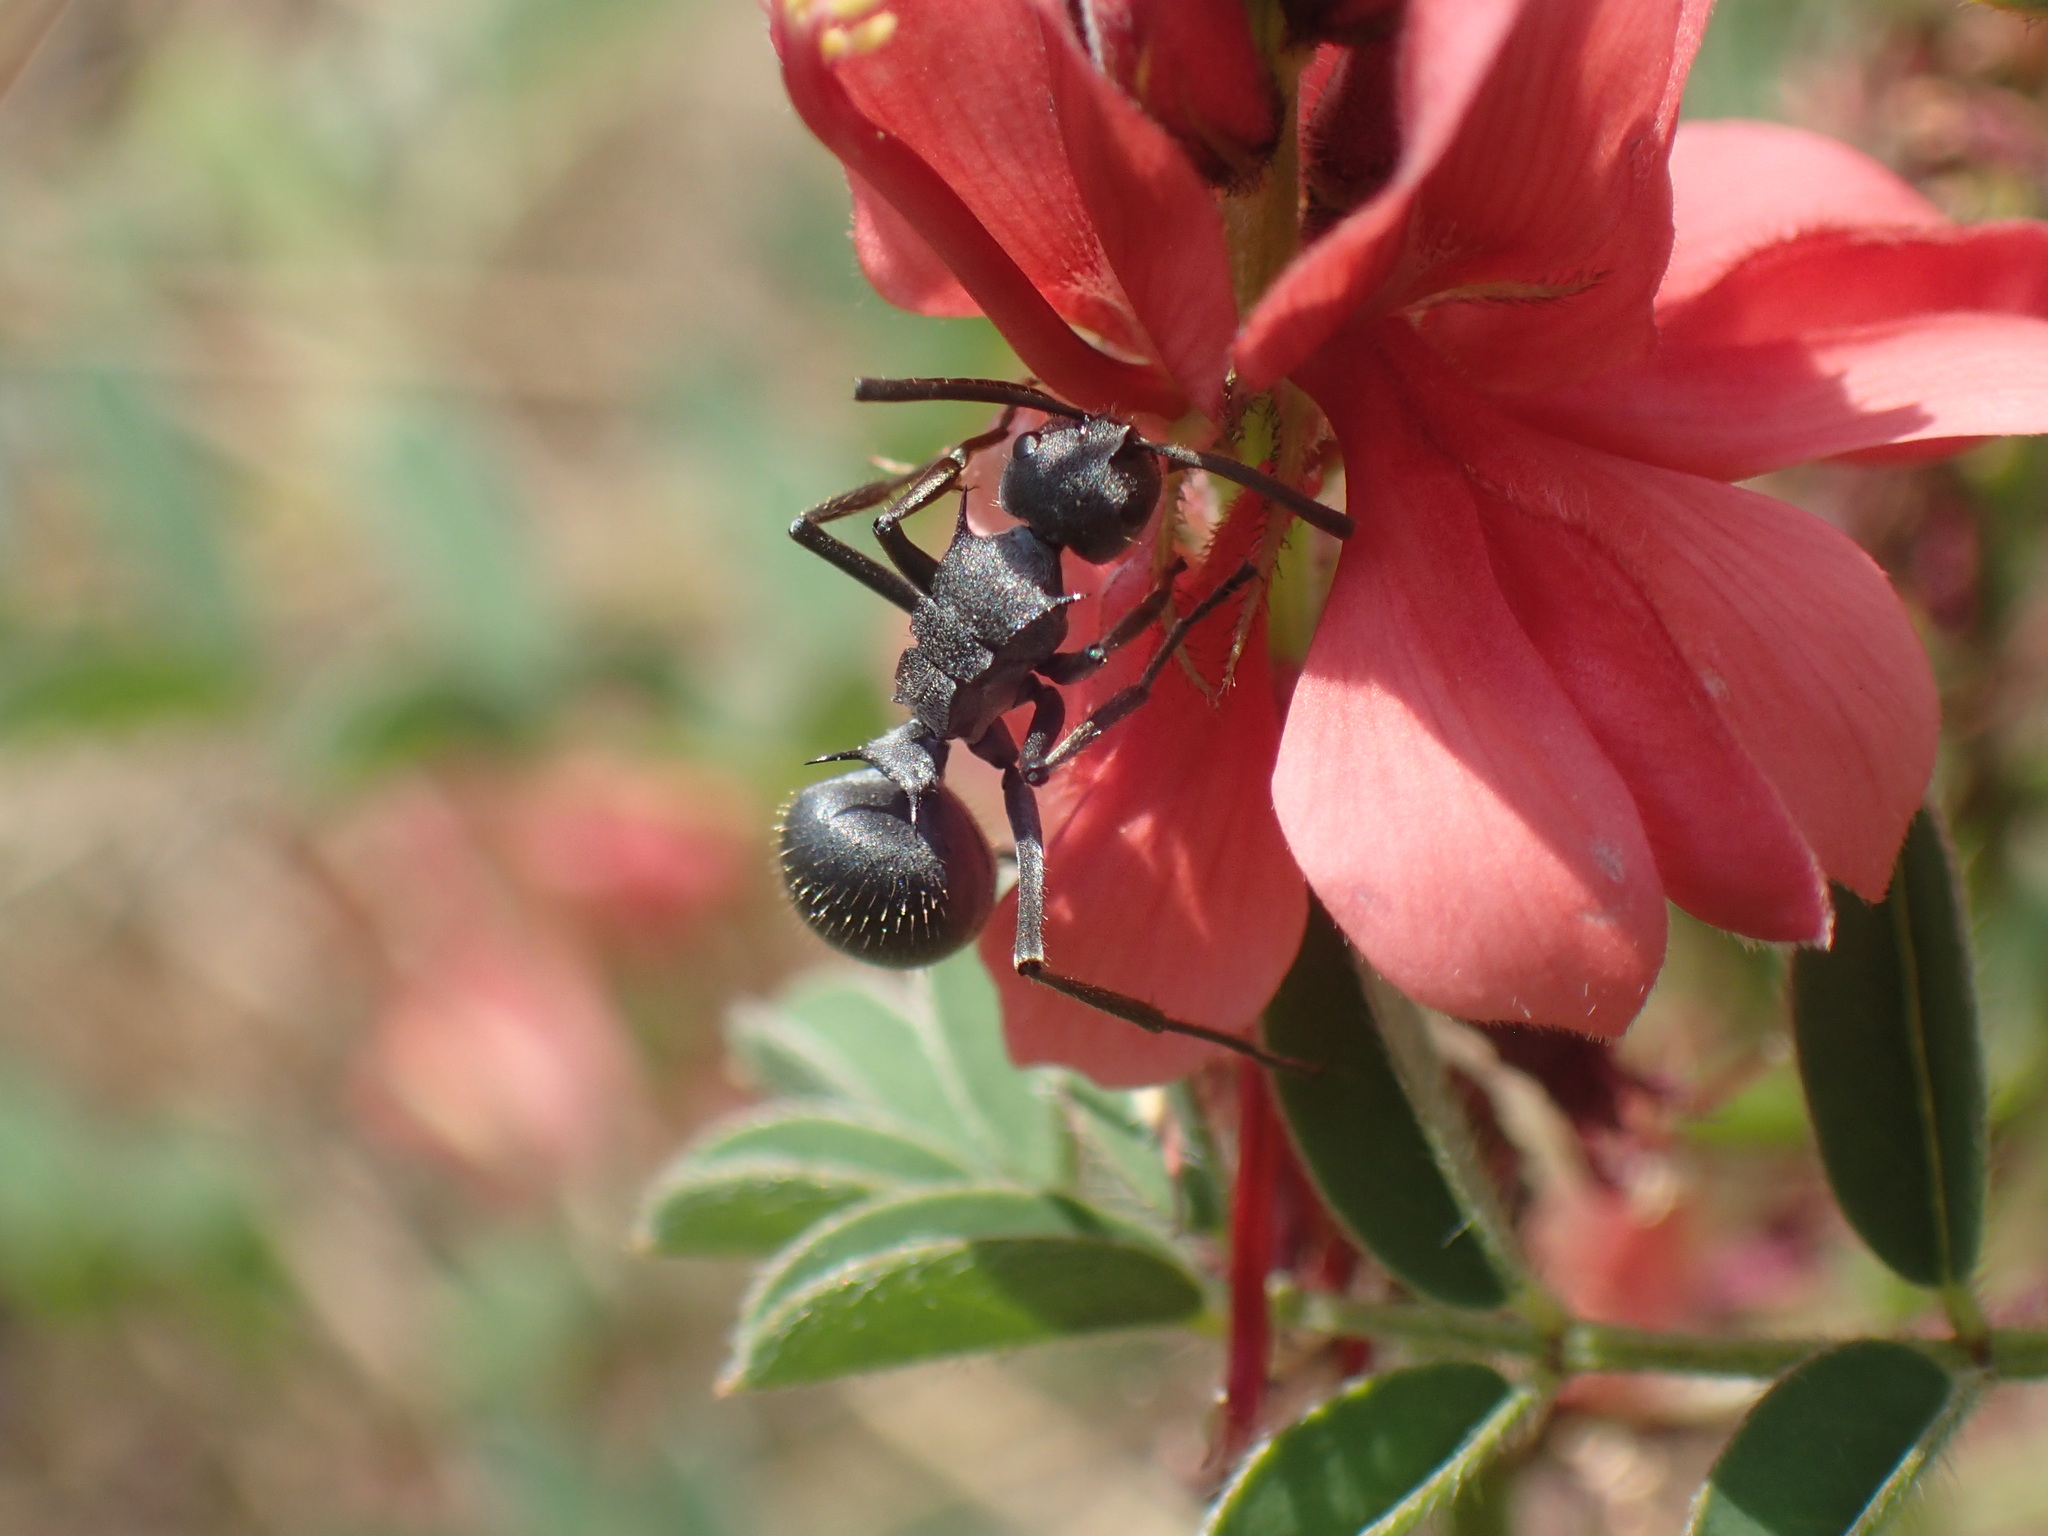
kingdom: Animalia
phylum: Arthropoda
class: Insecta
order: Hymenoptera
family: Formicidae
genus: Polyrhachis
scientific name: Polyrhachis schistacea
